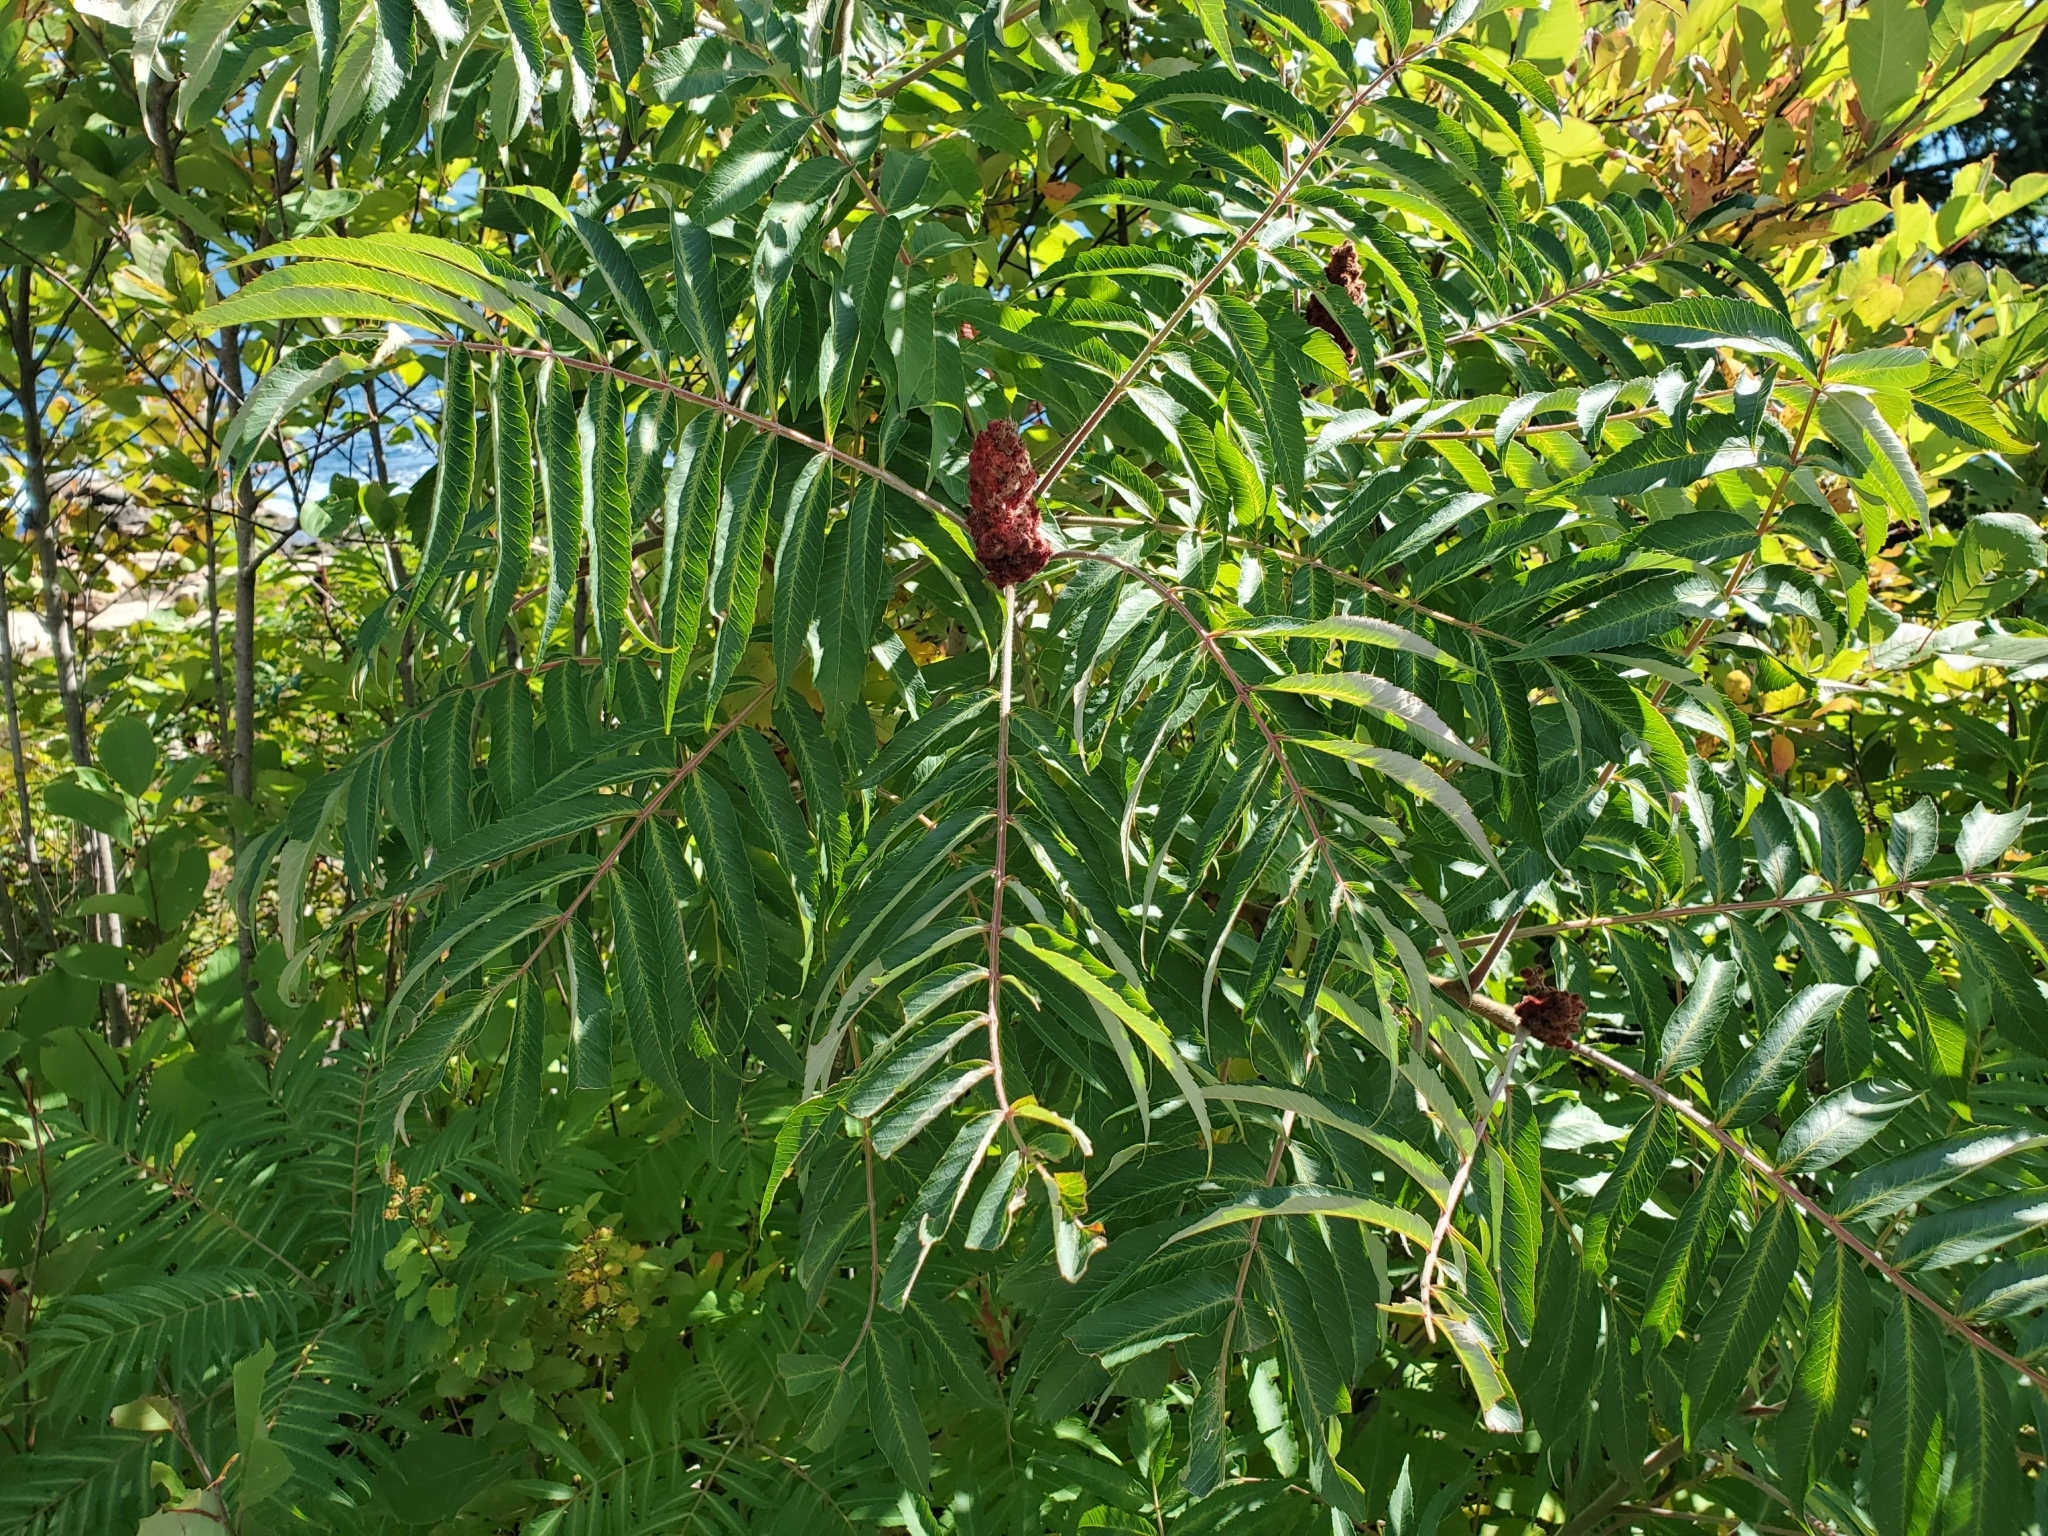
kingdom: Plantae
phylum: Tracheophyta
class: Magnoliopsida
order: Sapindales
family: Anacardiaceae
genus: Rhus
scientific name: Rhus typhina
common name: Staghorn sumac
